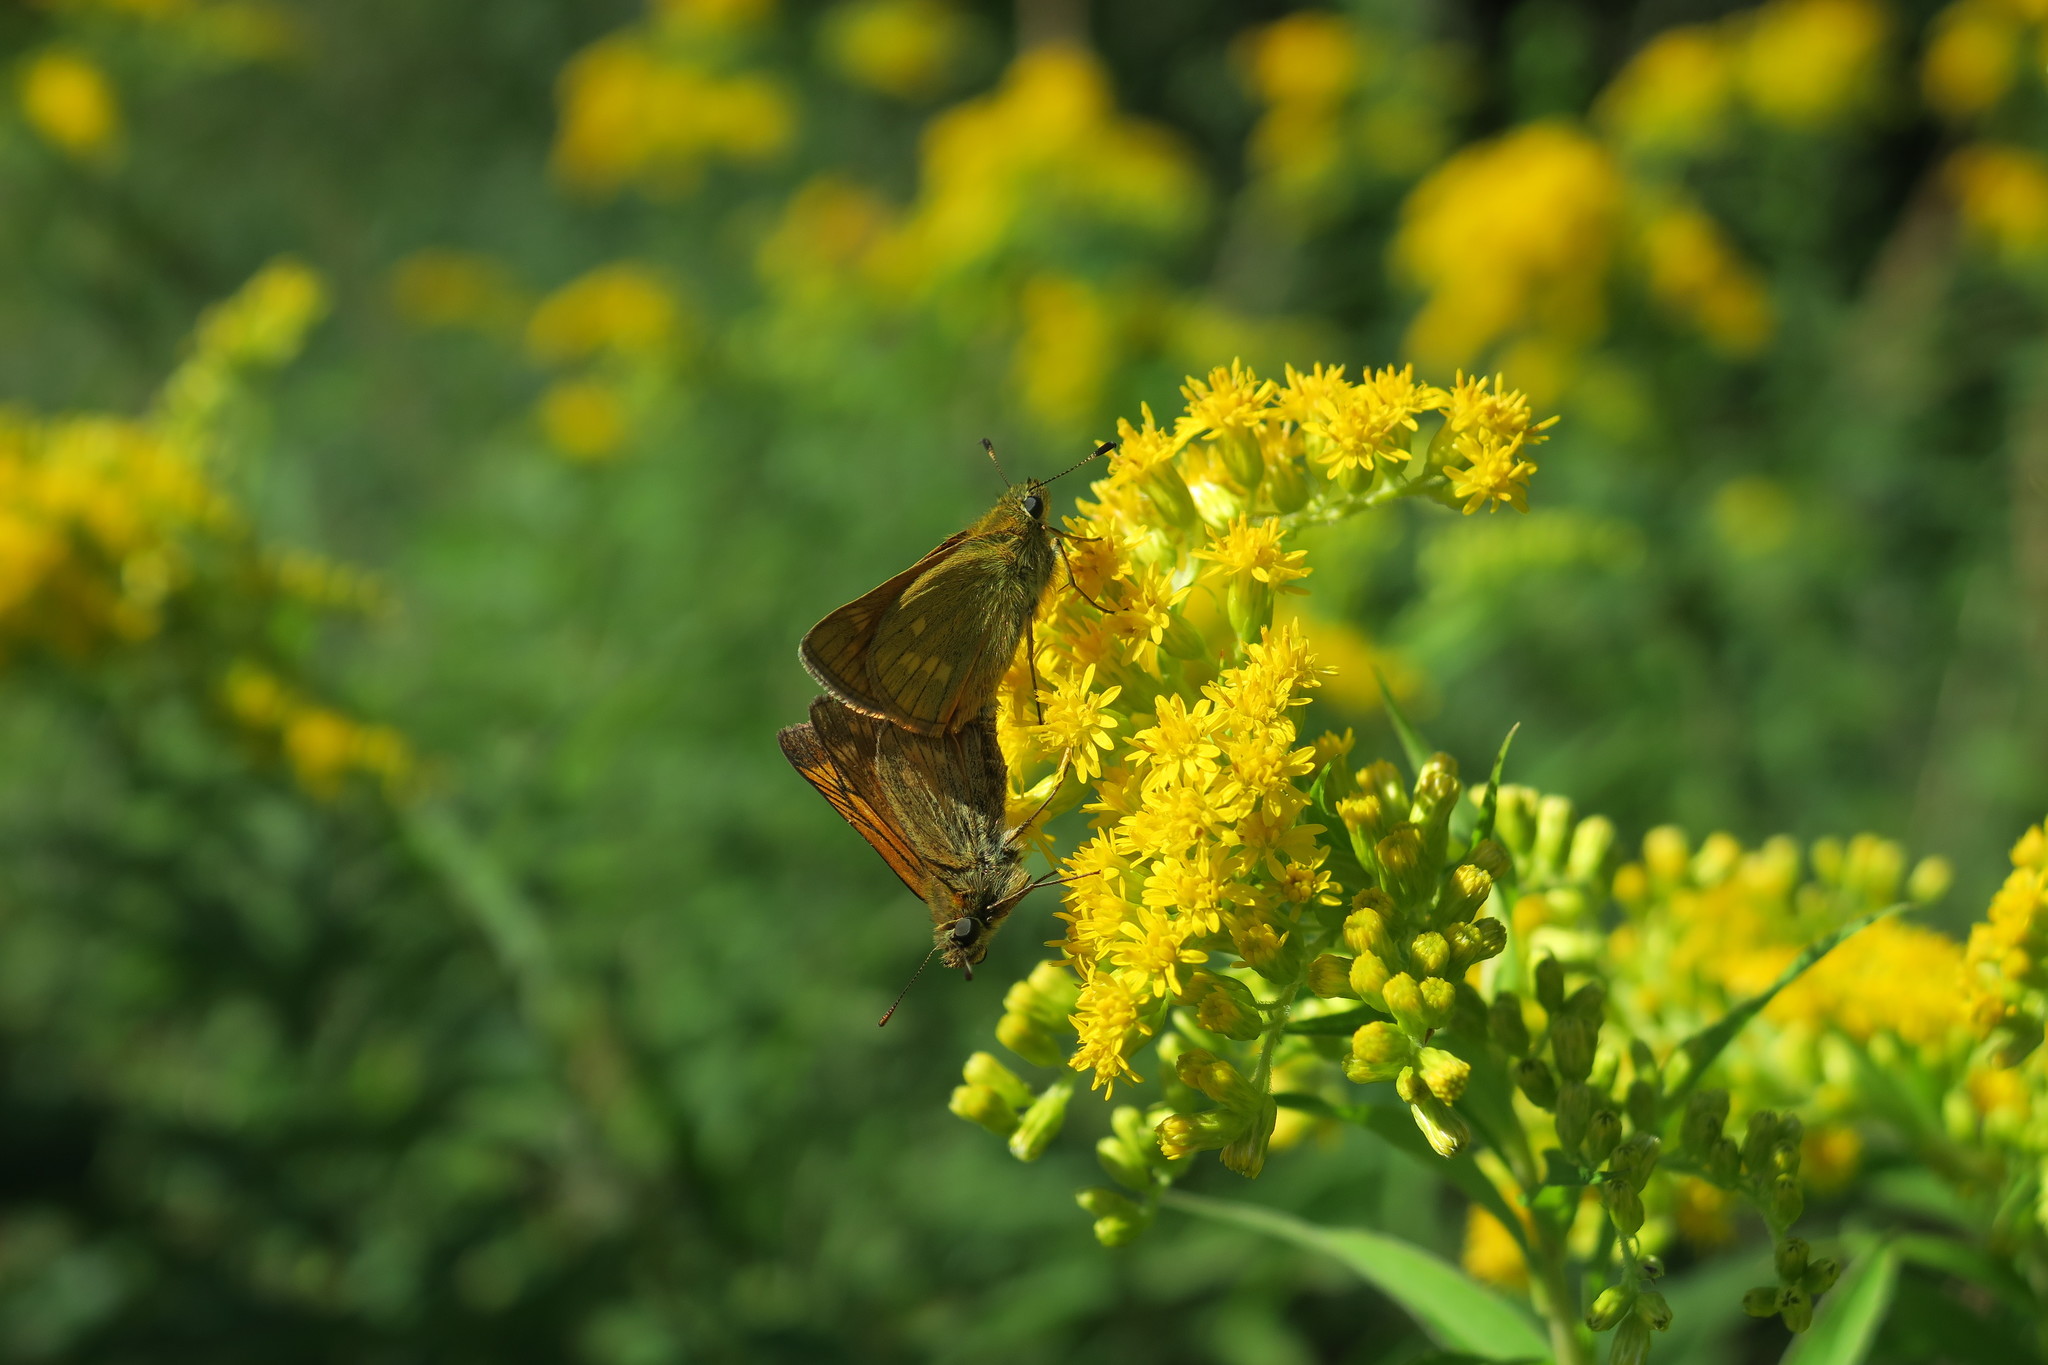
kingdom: Animalia
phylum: Arthropoda
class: Insecta
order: Lepidoptera
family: Hesperiidae
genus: Ochlodes
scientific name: Ochlodes venata
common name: Large skipper
